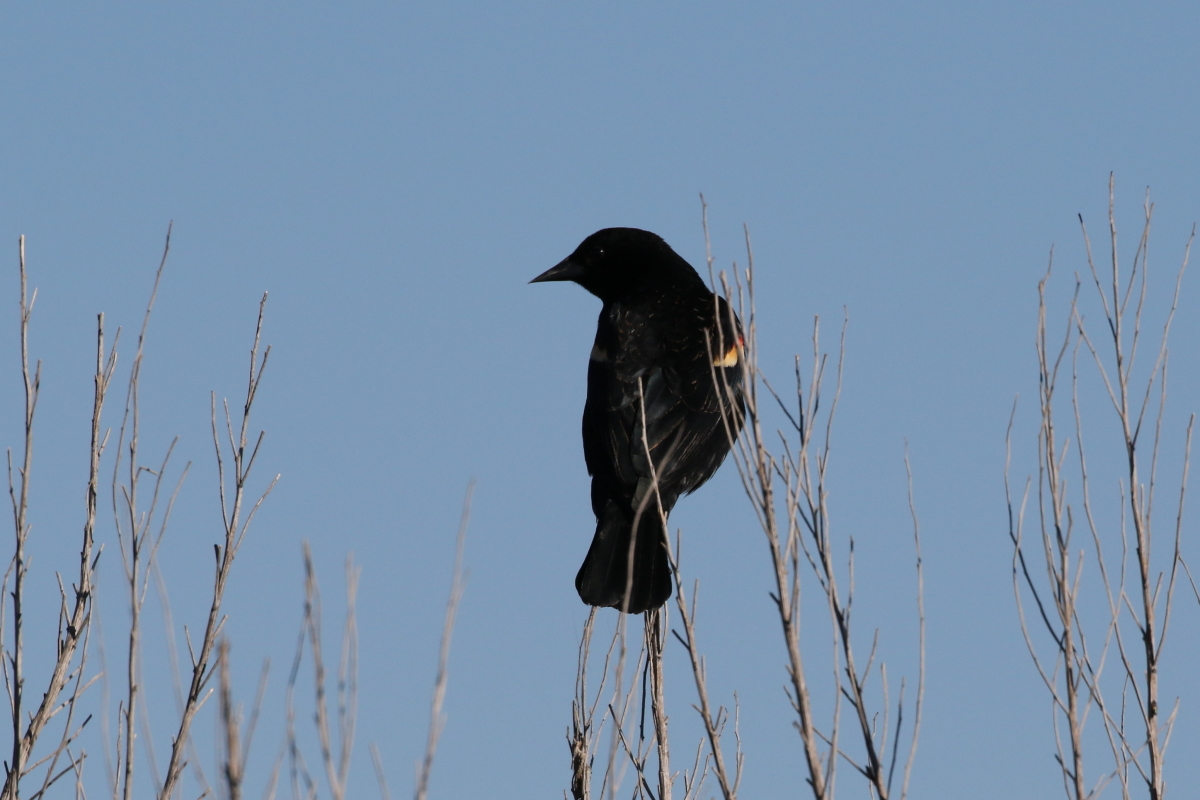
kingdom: Animalia
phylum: Chordata
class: Aves
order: Passeriformes
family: Icteridae
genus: Agelaius
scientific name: Agelaius phoeniceus
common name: Red-winged blackbird
